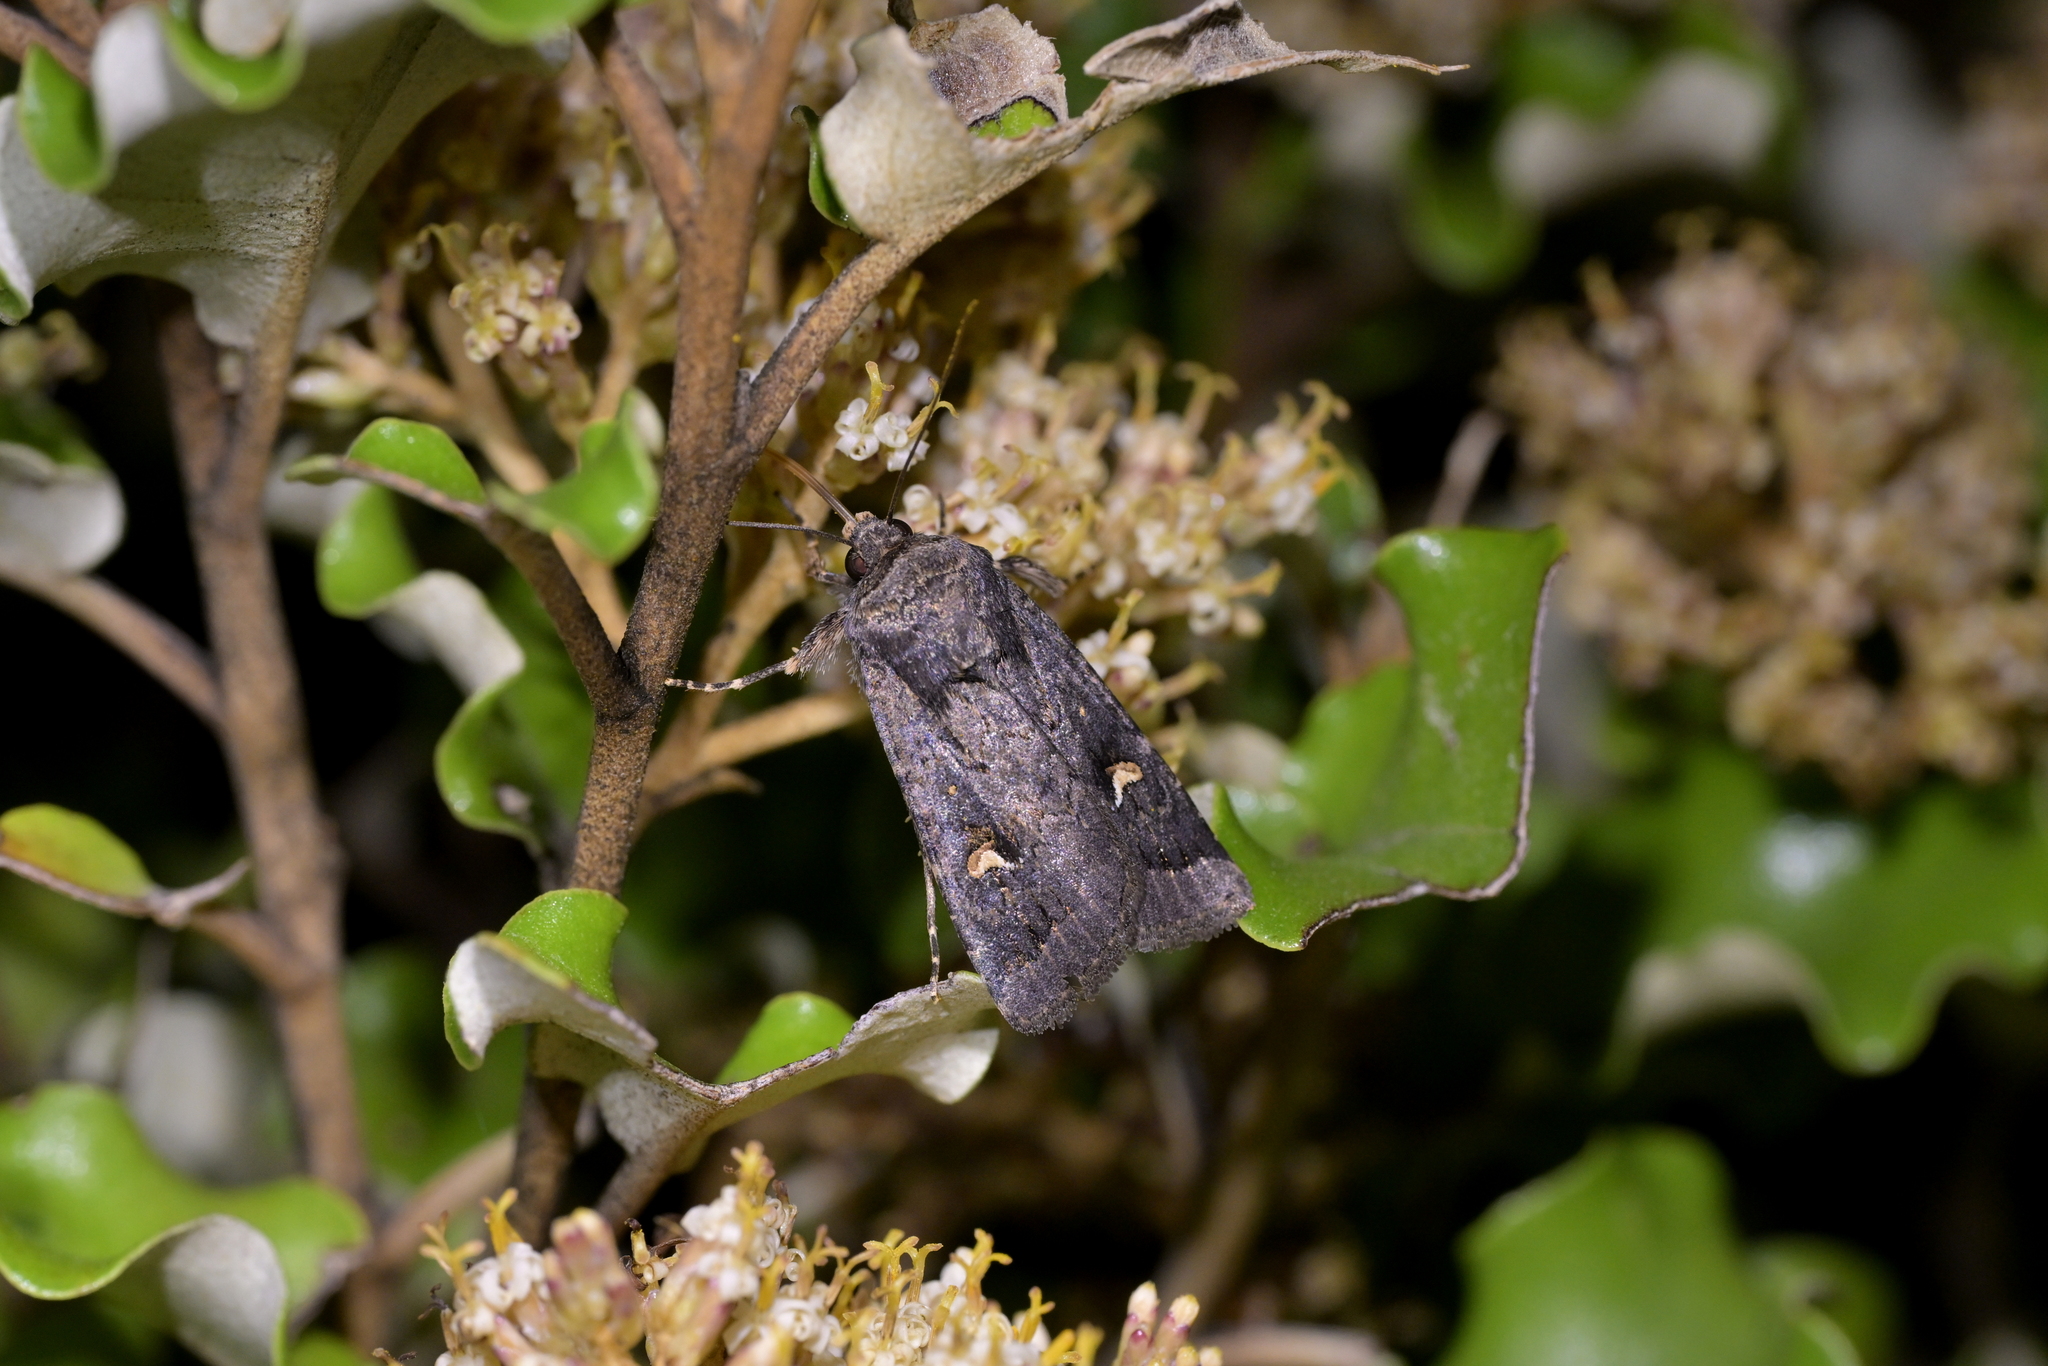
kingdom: Animalia
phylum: Arthropoda
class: Insecta
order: Lepidoptera
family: Noctuidae
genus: Proteuxoa
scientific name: Proteuxoa comma
